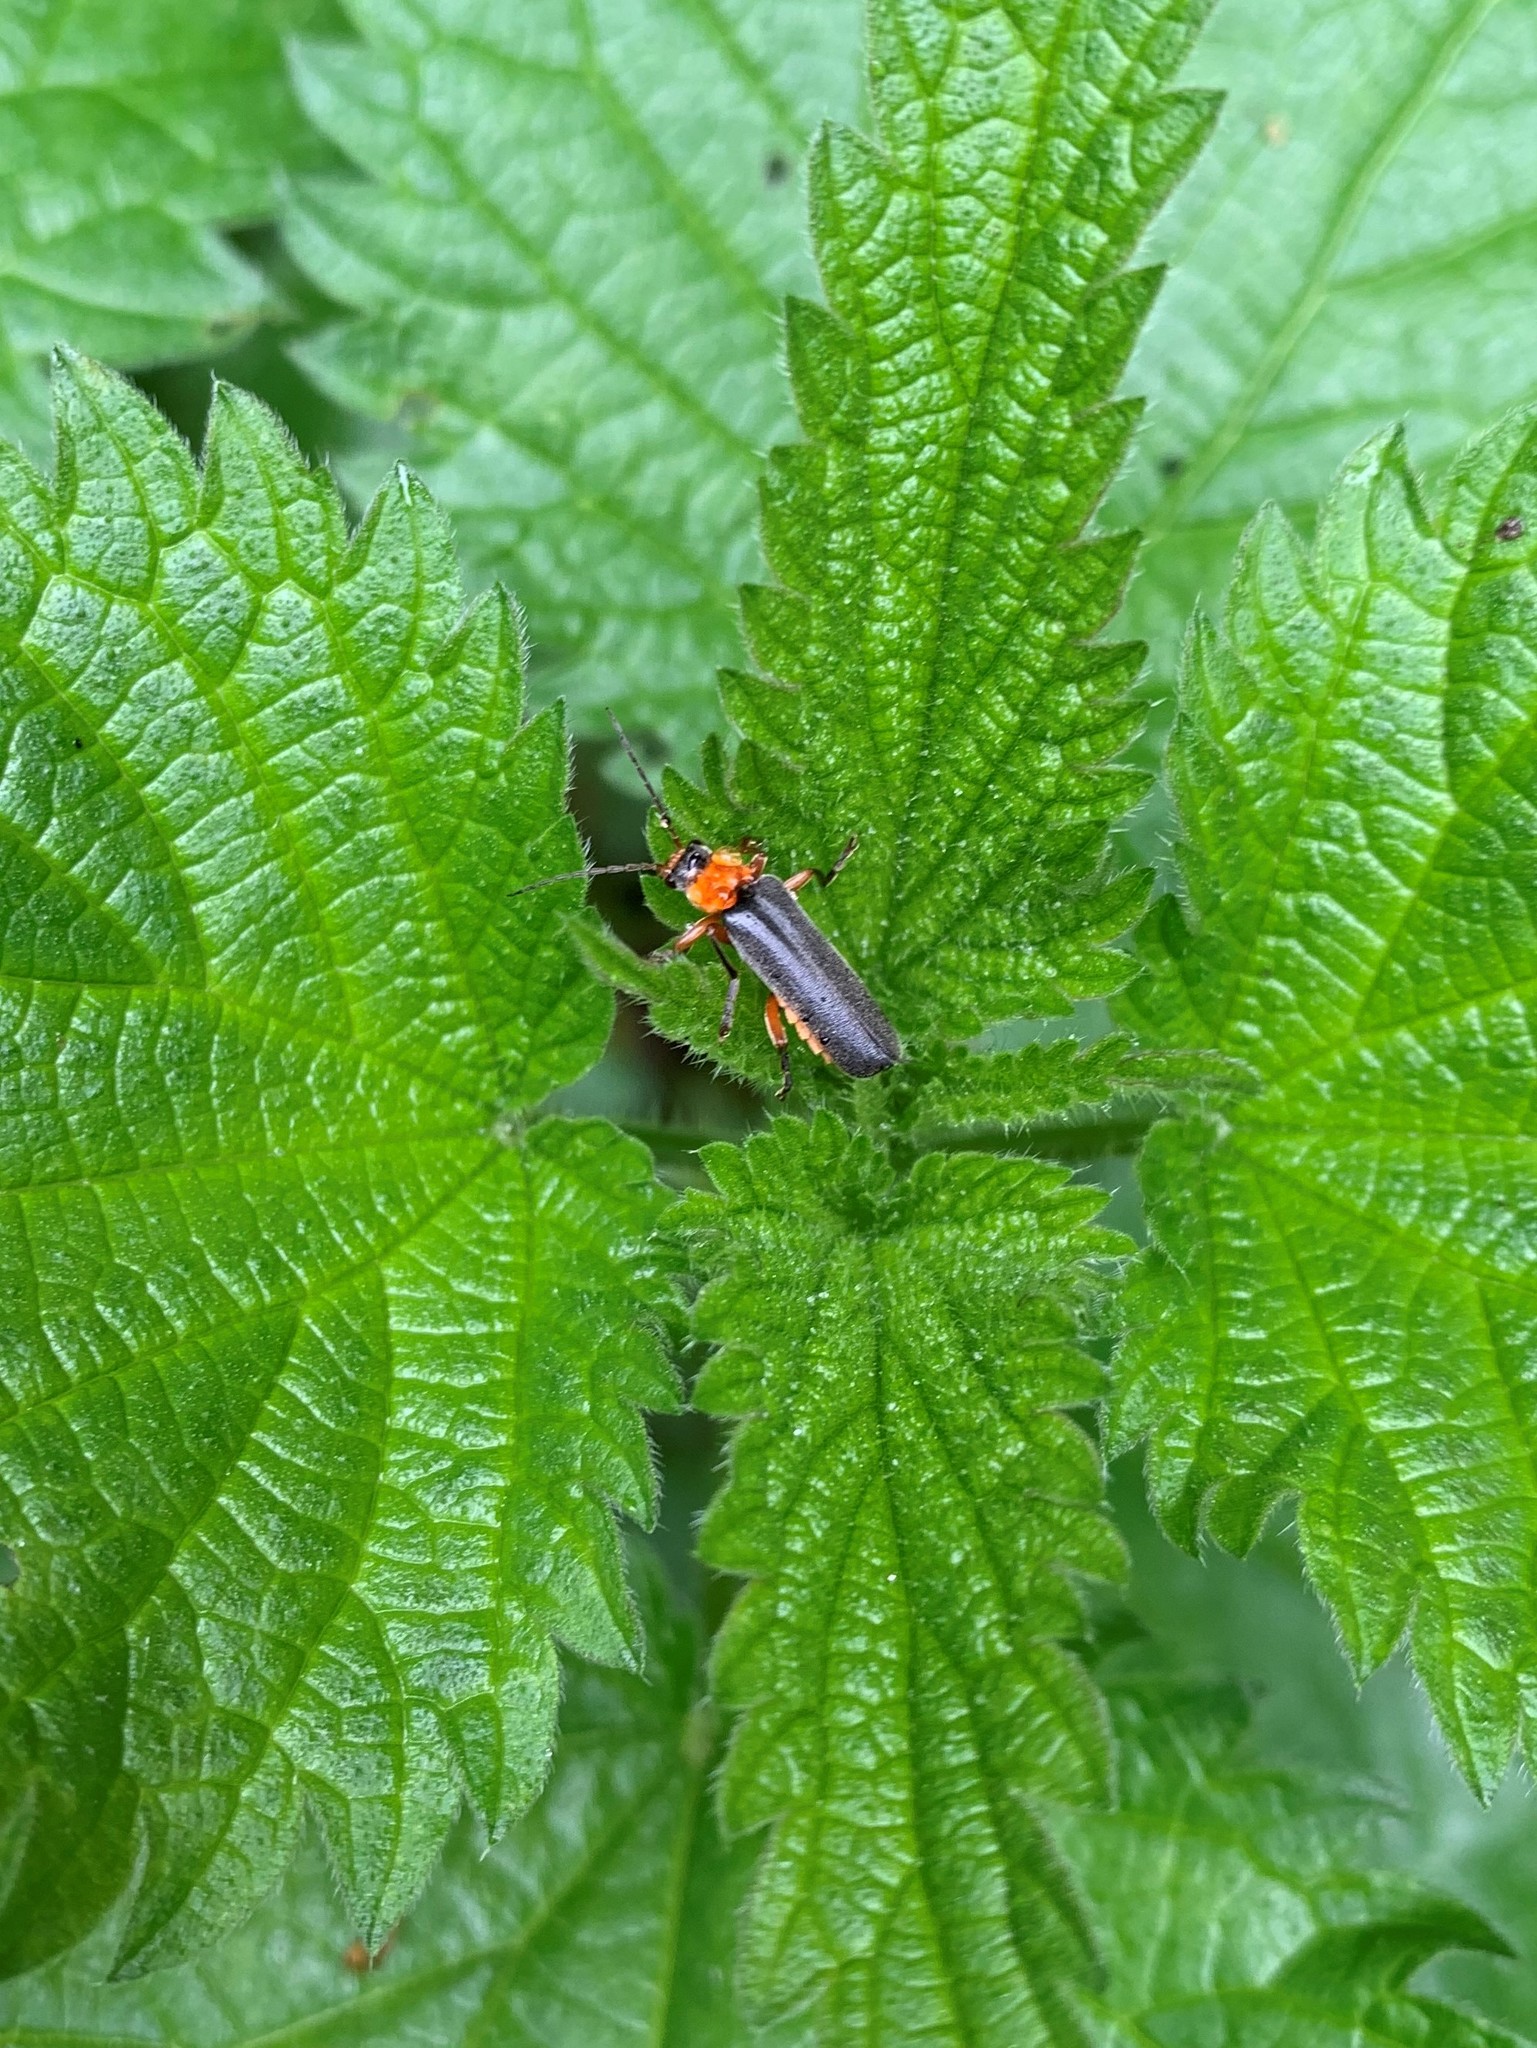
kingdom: Animalia
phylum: Arthropoda
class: Insecta
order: Coleoptera
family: Cantharidae
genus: Cantharis
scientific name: Cantharis pellucida
